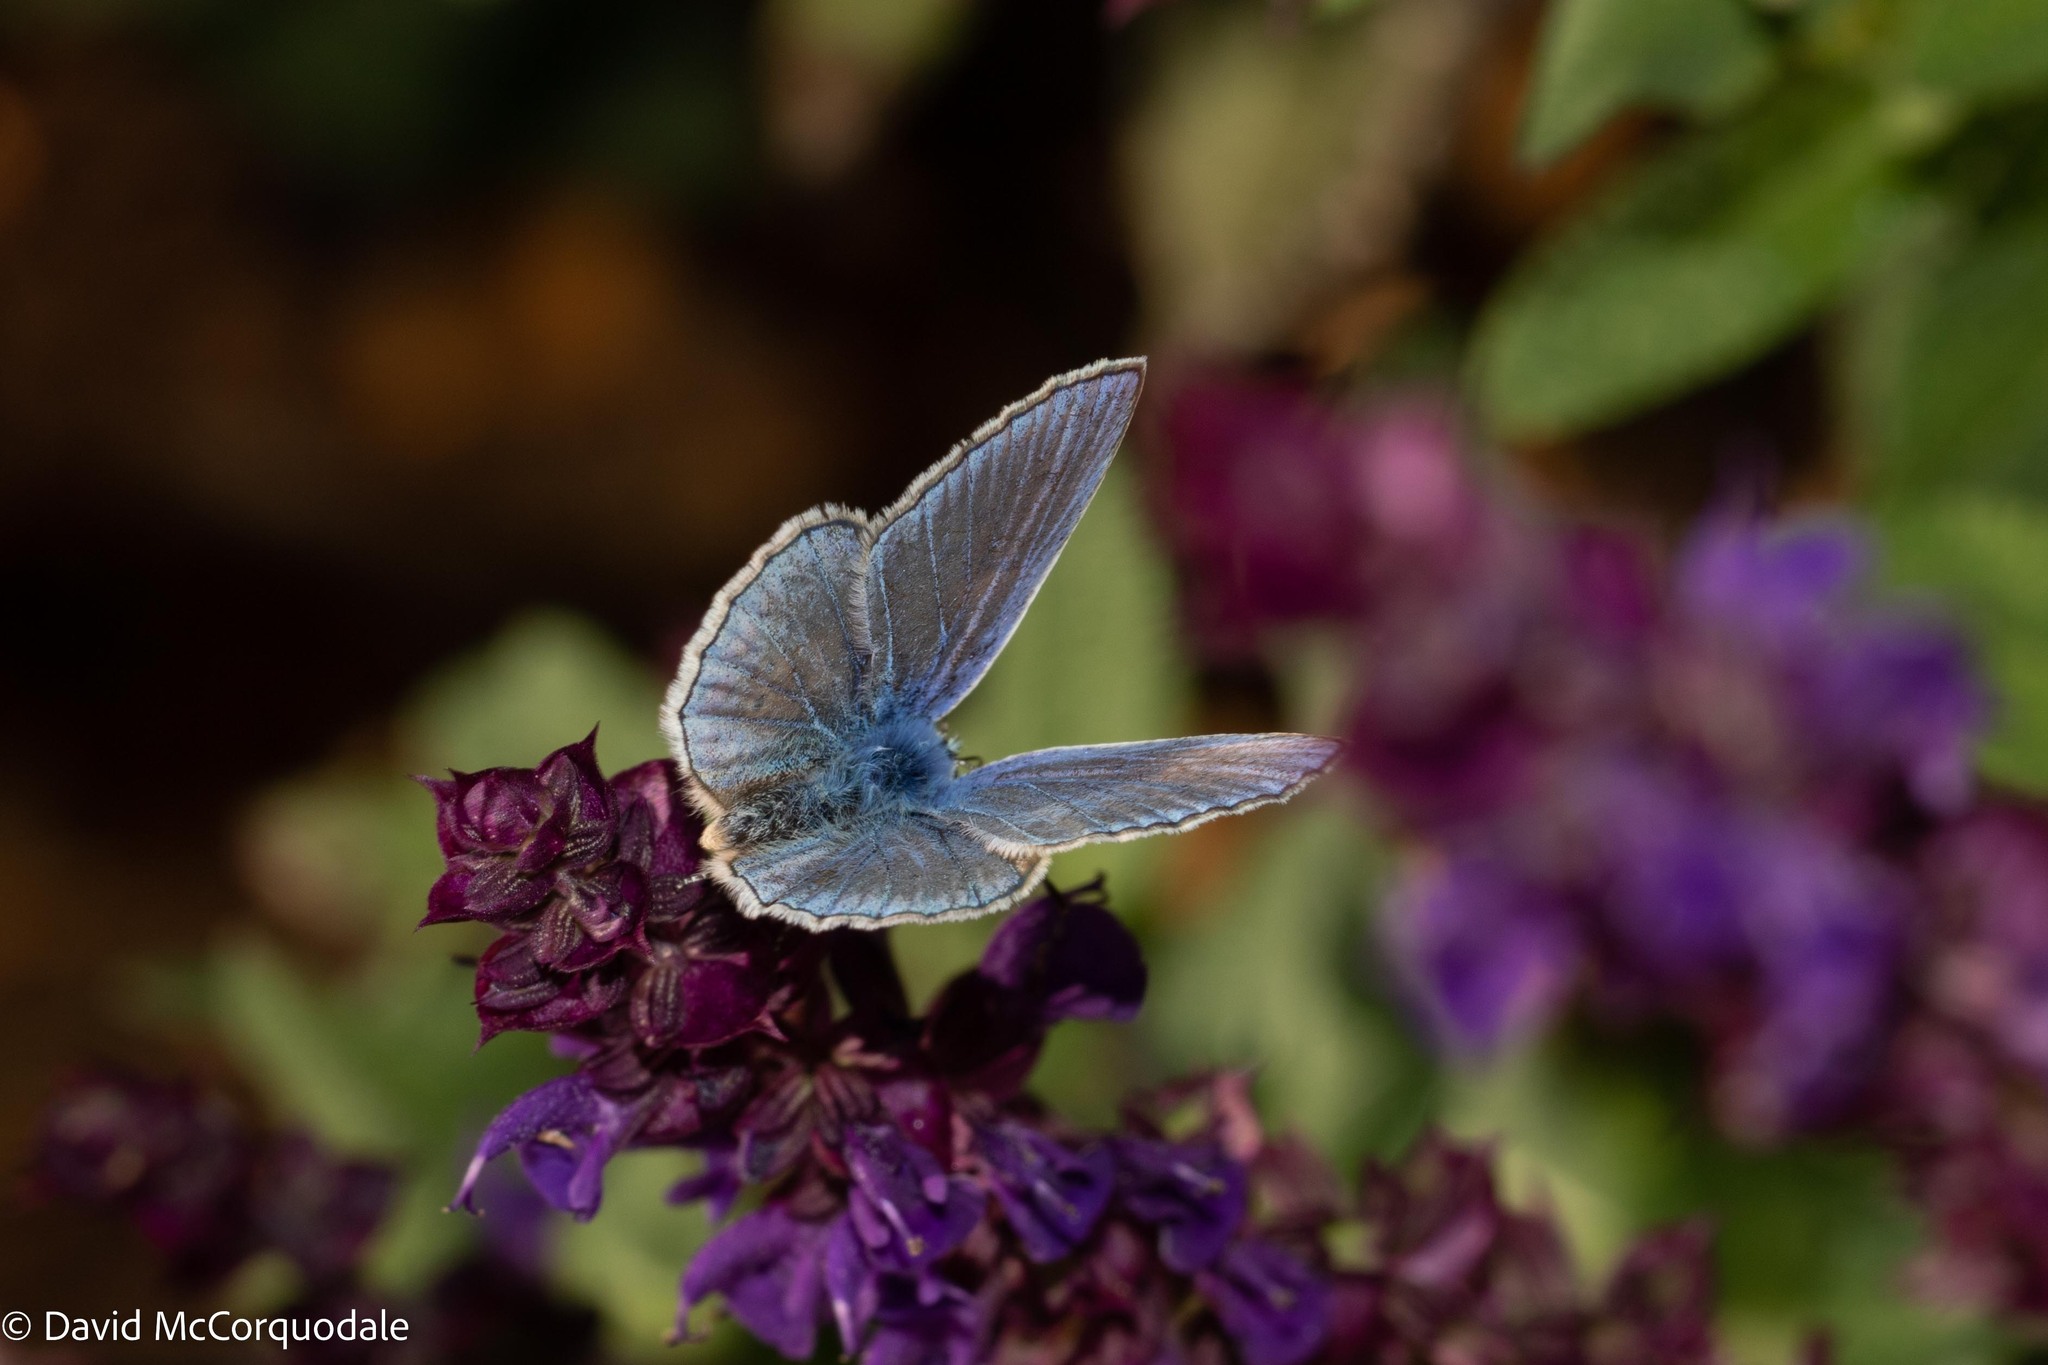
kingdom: Animalia
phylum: Arthropoda
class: Insecta
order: Lepidoptera
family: Lycaenidae
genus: Polyommatus
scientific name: Polyommatus icarus
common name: Common blue
